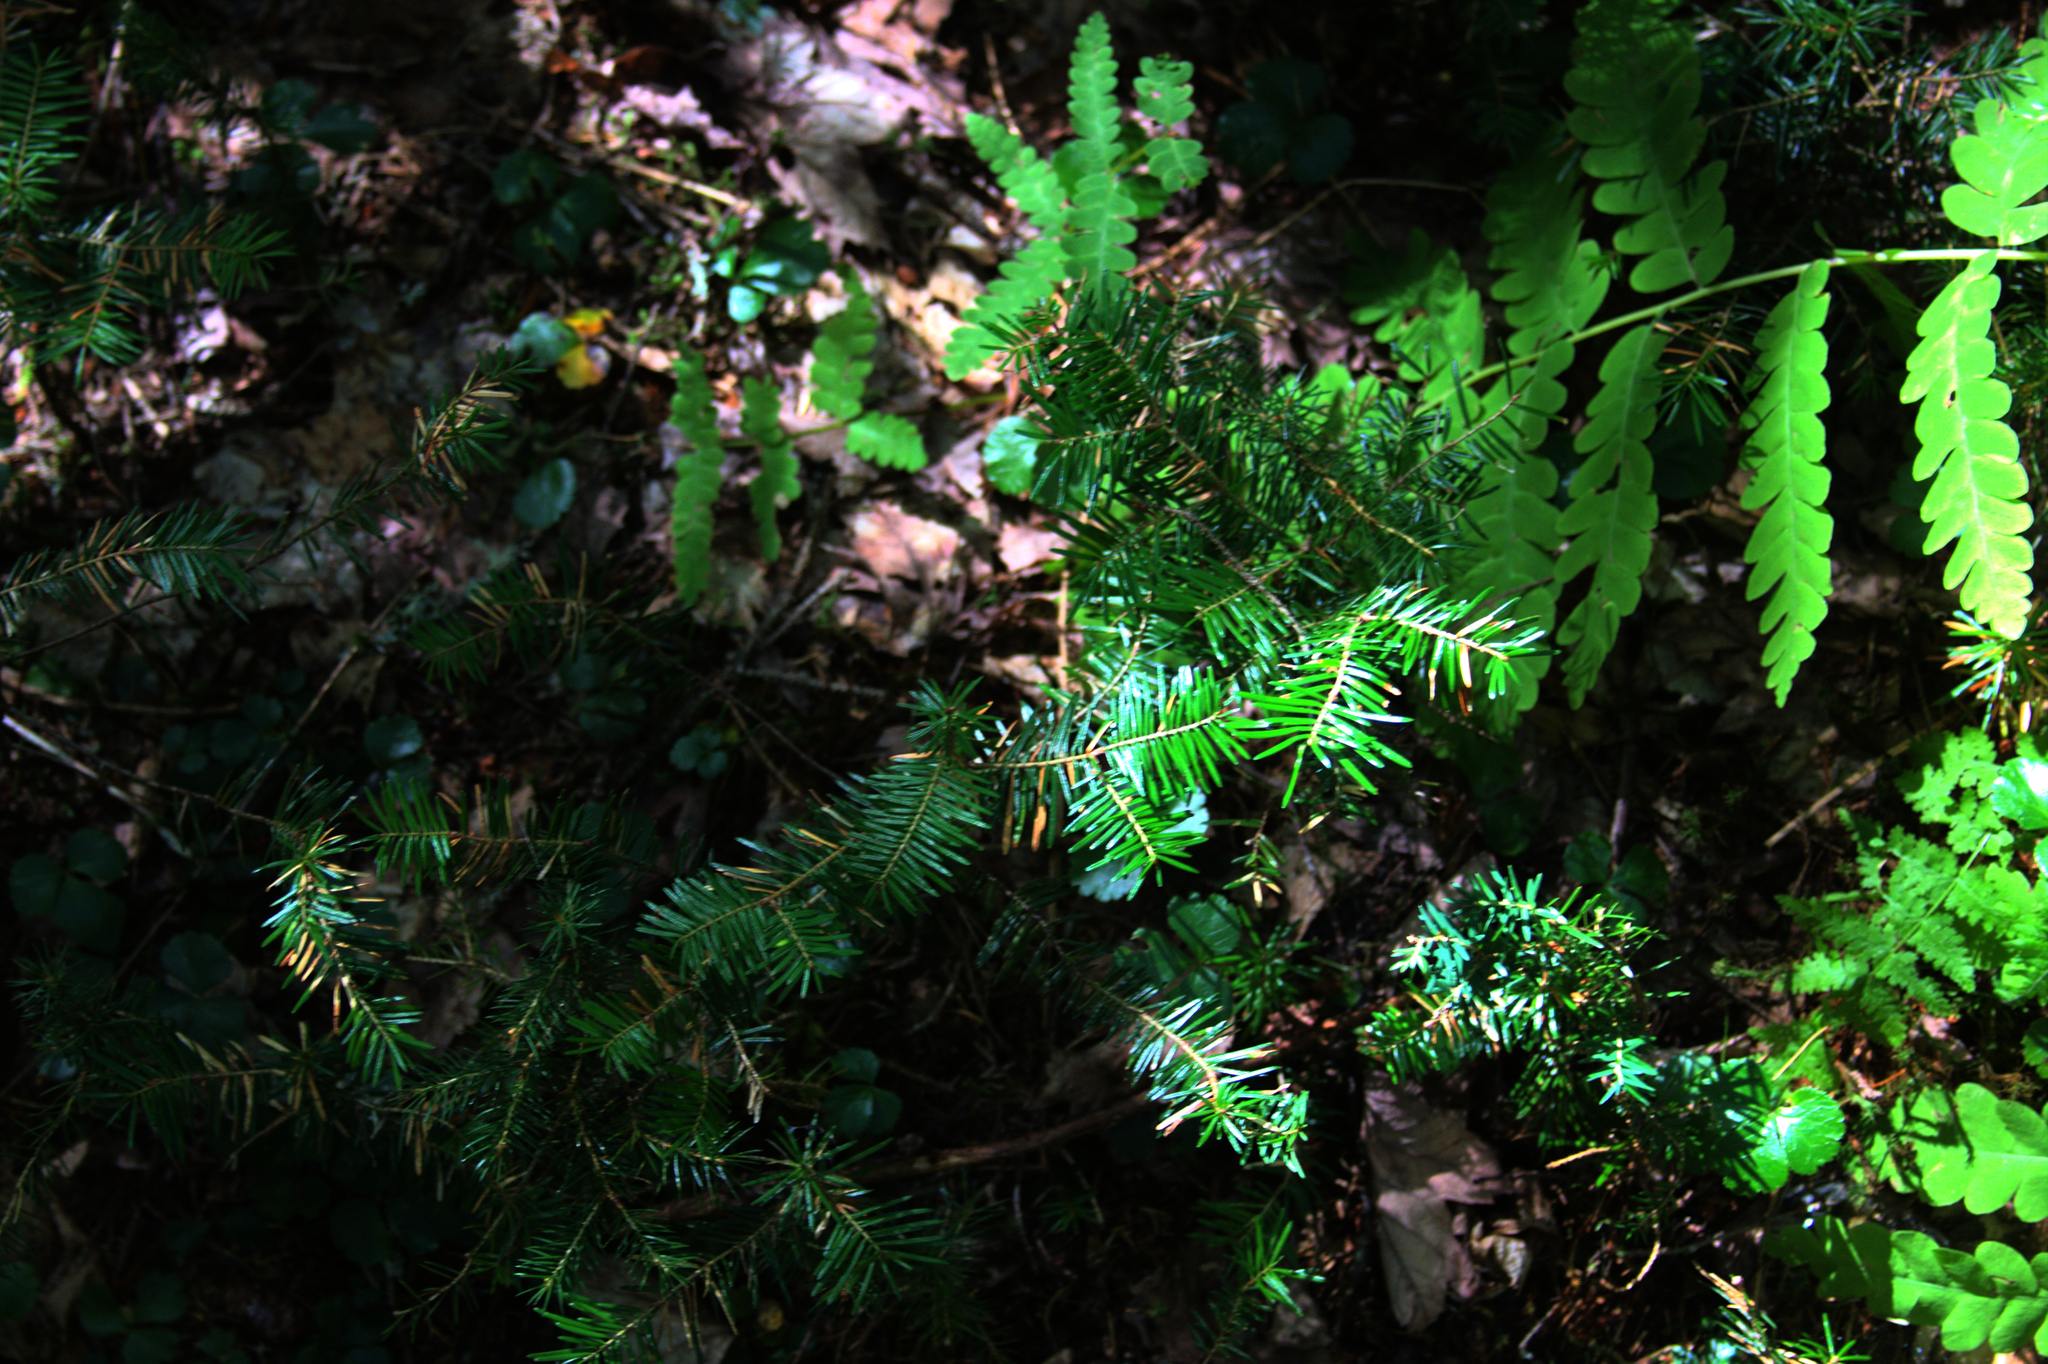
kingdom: Plantae
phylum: Tracheophyta
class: Pinopsida
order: Pinales
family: Pinaceae
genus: Abies
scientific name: Abies balsamea
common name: Balsam fir
